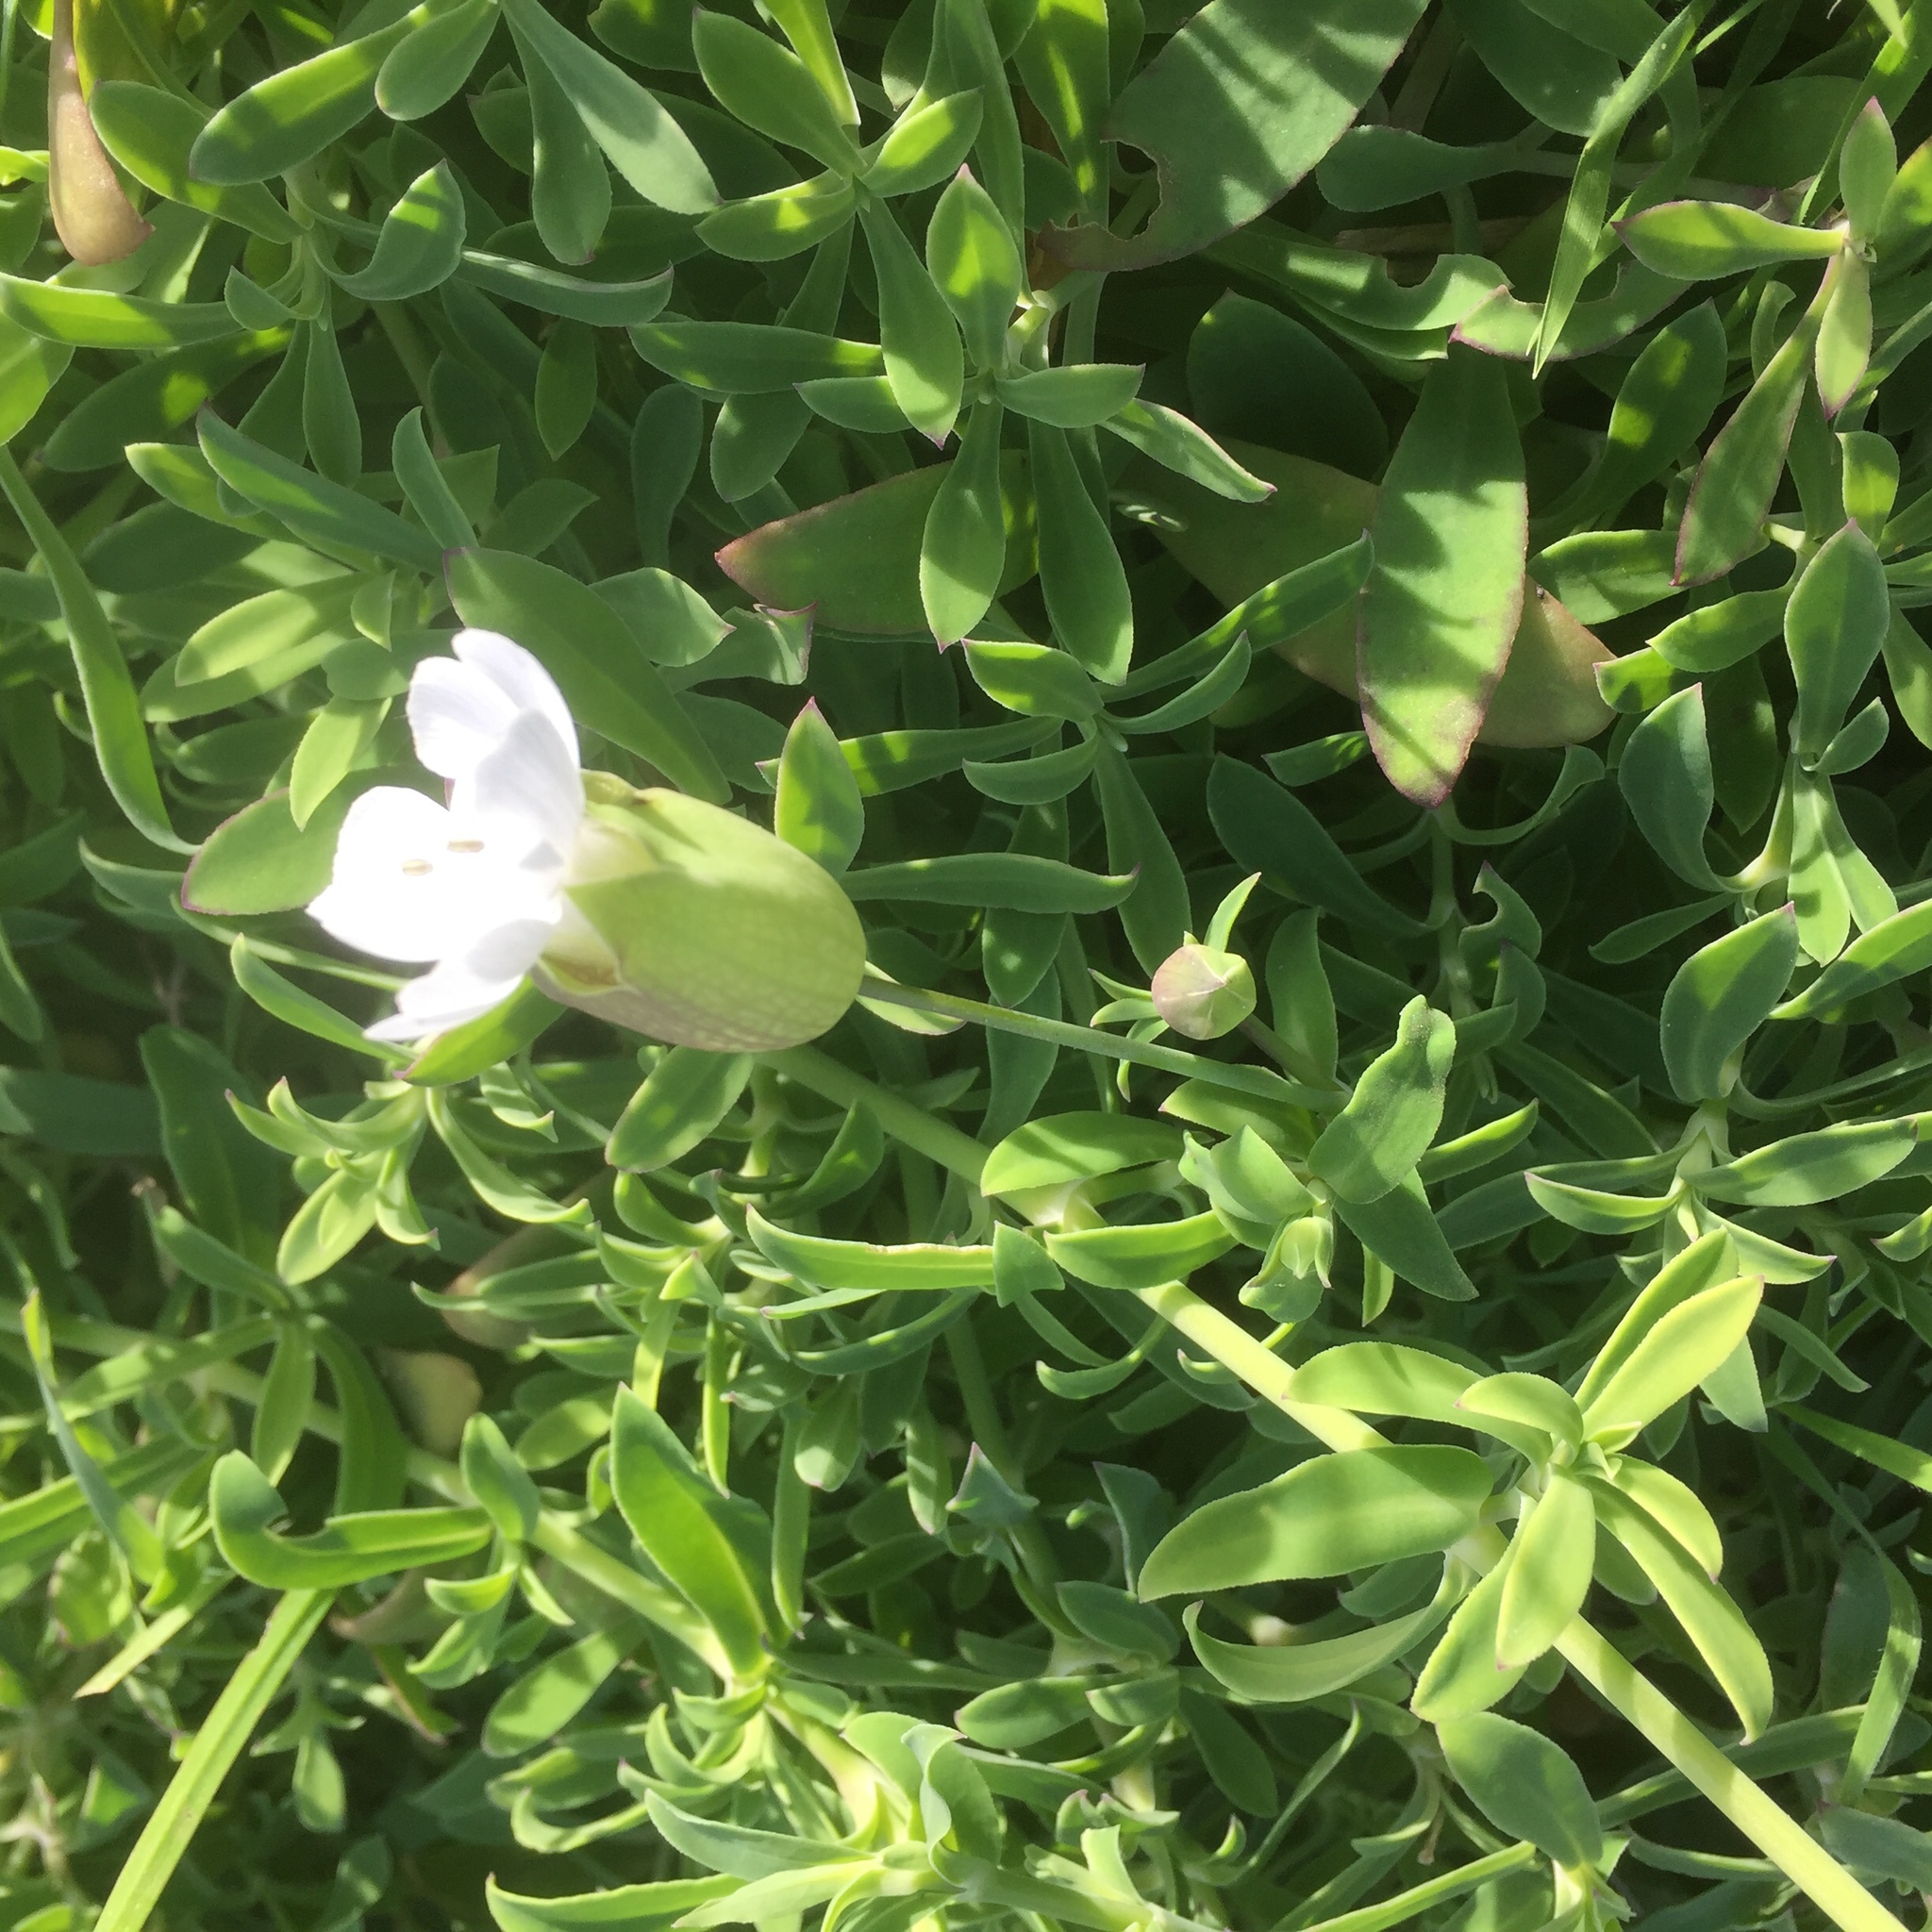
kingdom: Plantae
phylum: Tracheophyta
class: Magnoliopsida
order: Caryophyllales
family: Caryophyllaceae
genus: Silene
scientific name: Silene uniflora
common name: Sea campion
